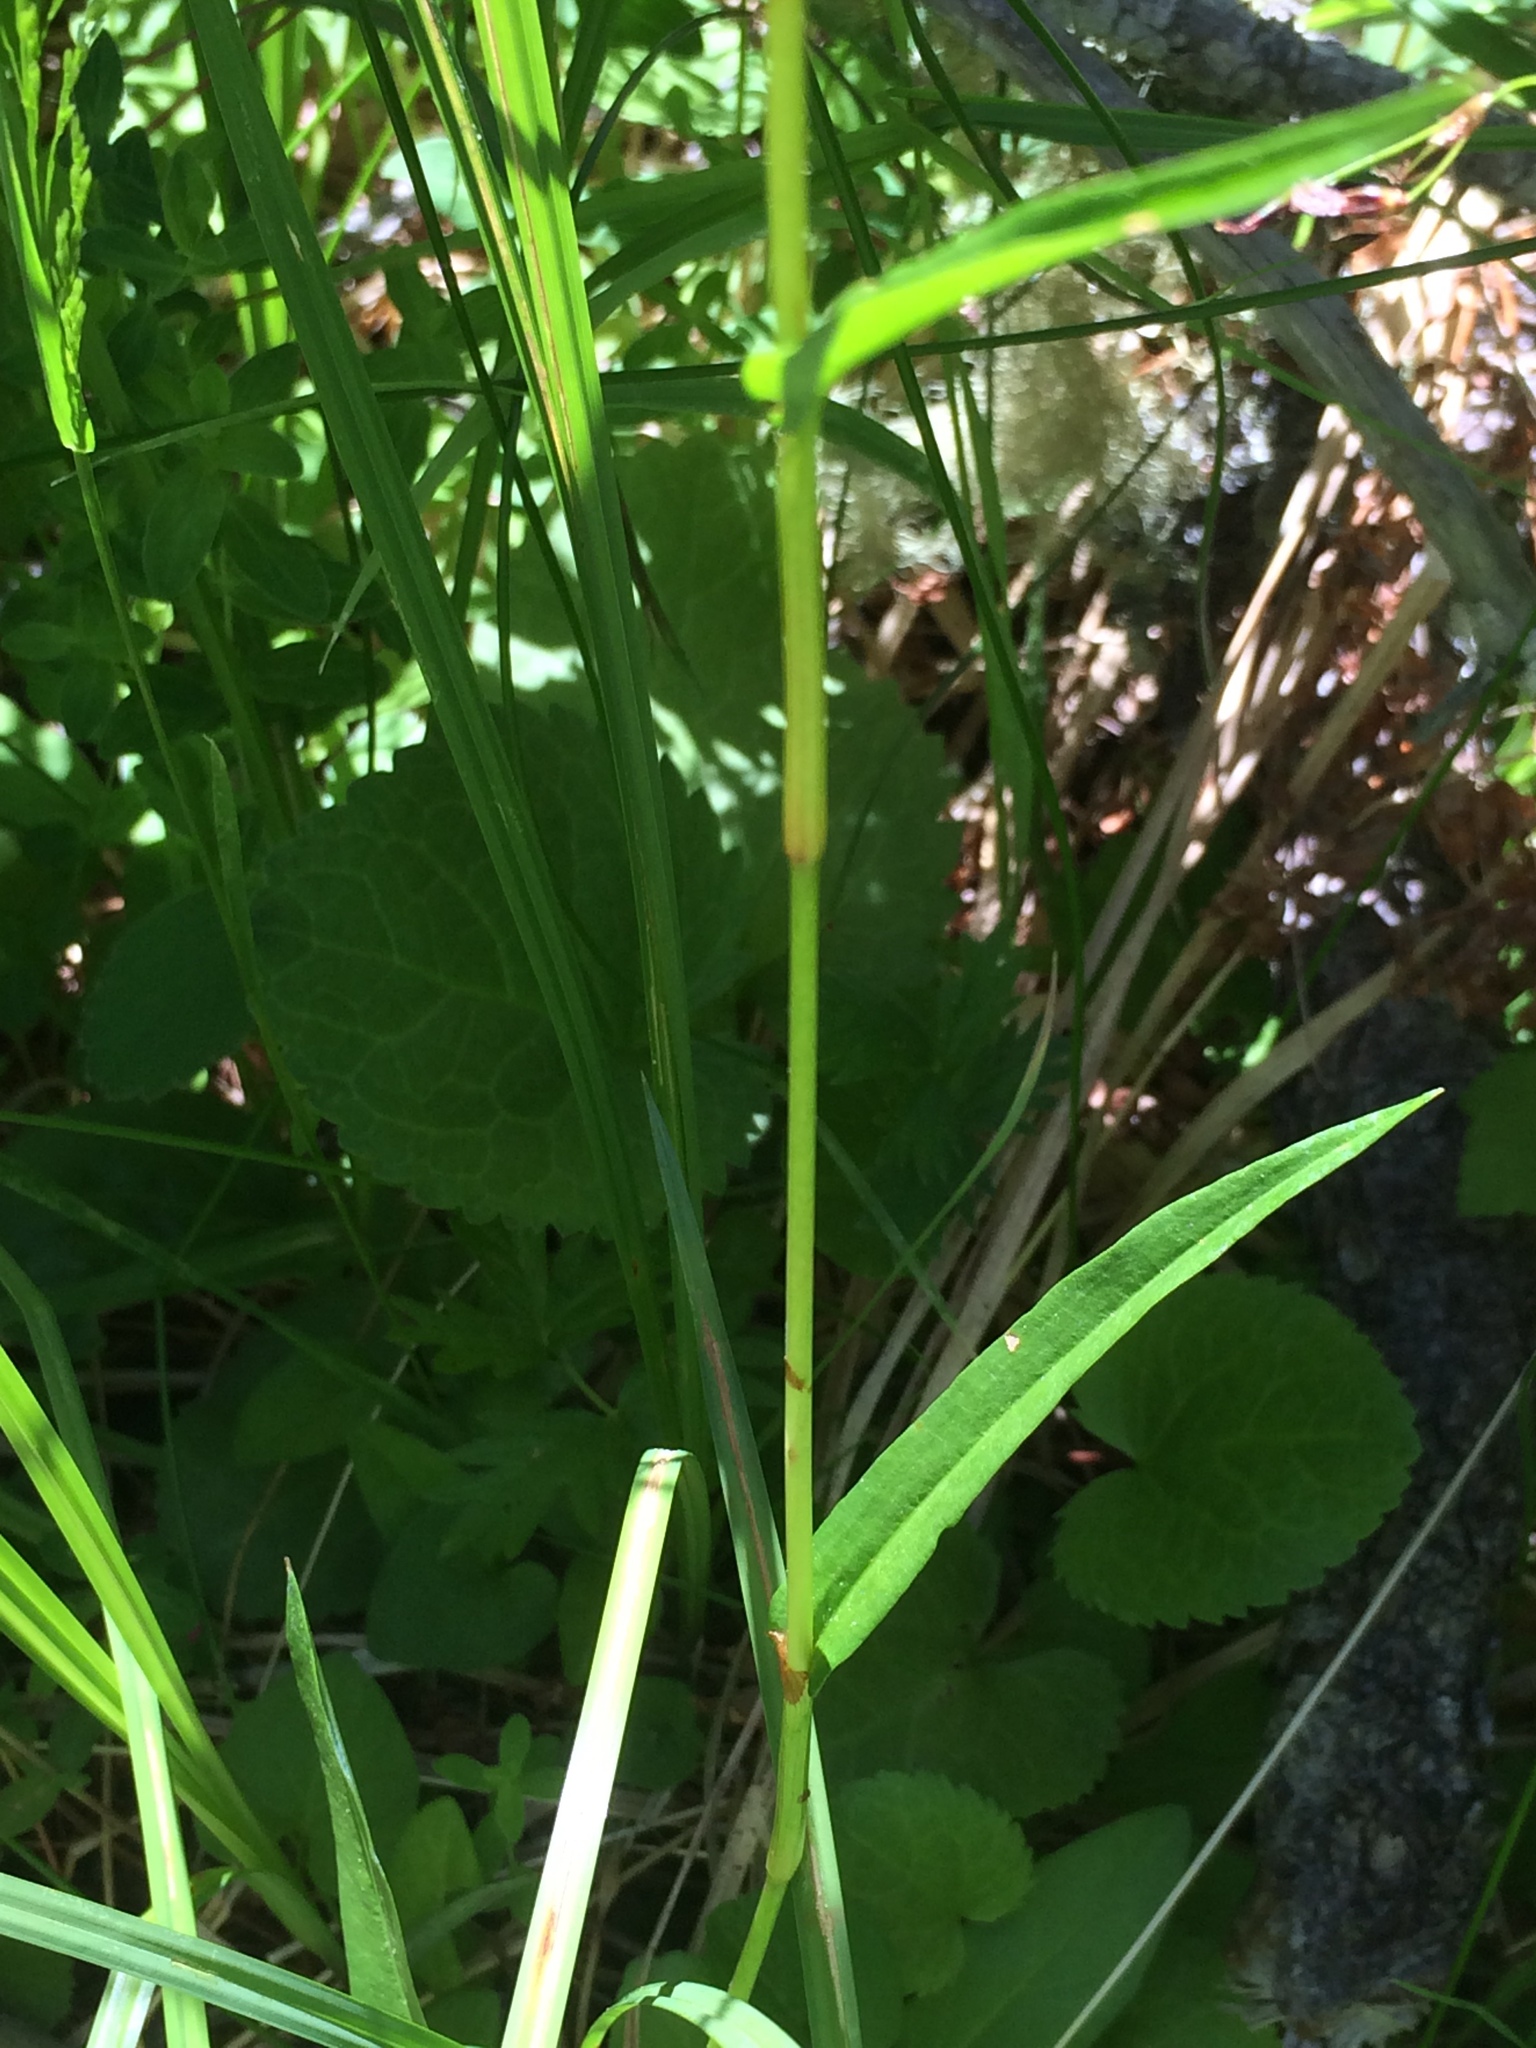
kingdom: Plantae
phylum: Tracheophyta
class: Magnoliopsida
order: Caryophyllales
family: Polygonaceae
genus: Bistorta
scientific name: Bistorta bistortoides
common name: American bistort
